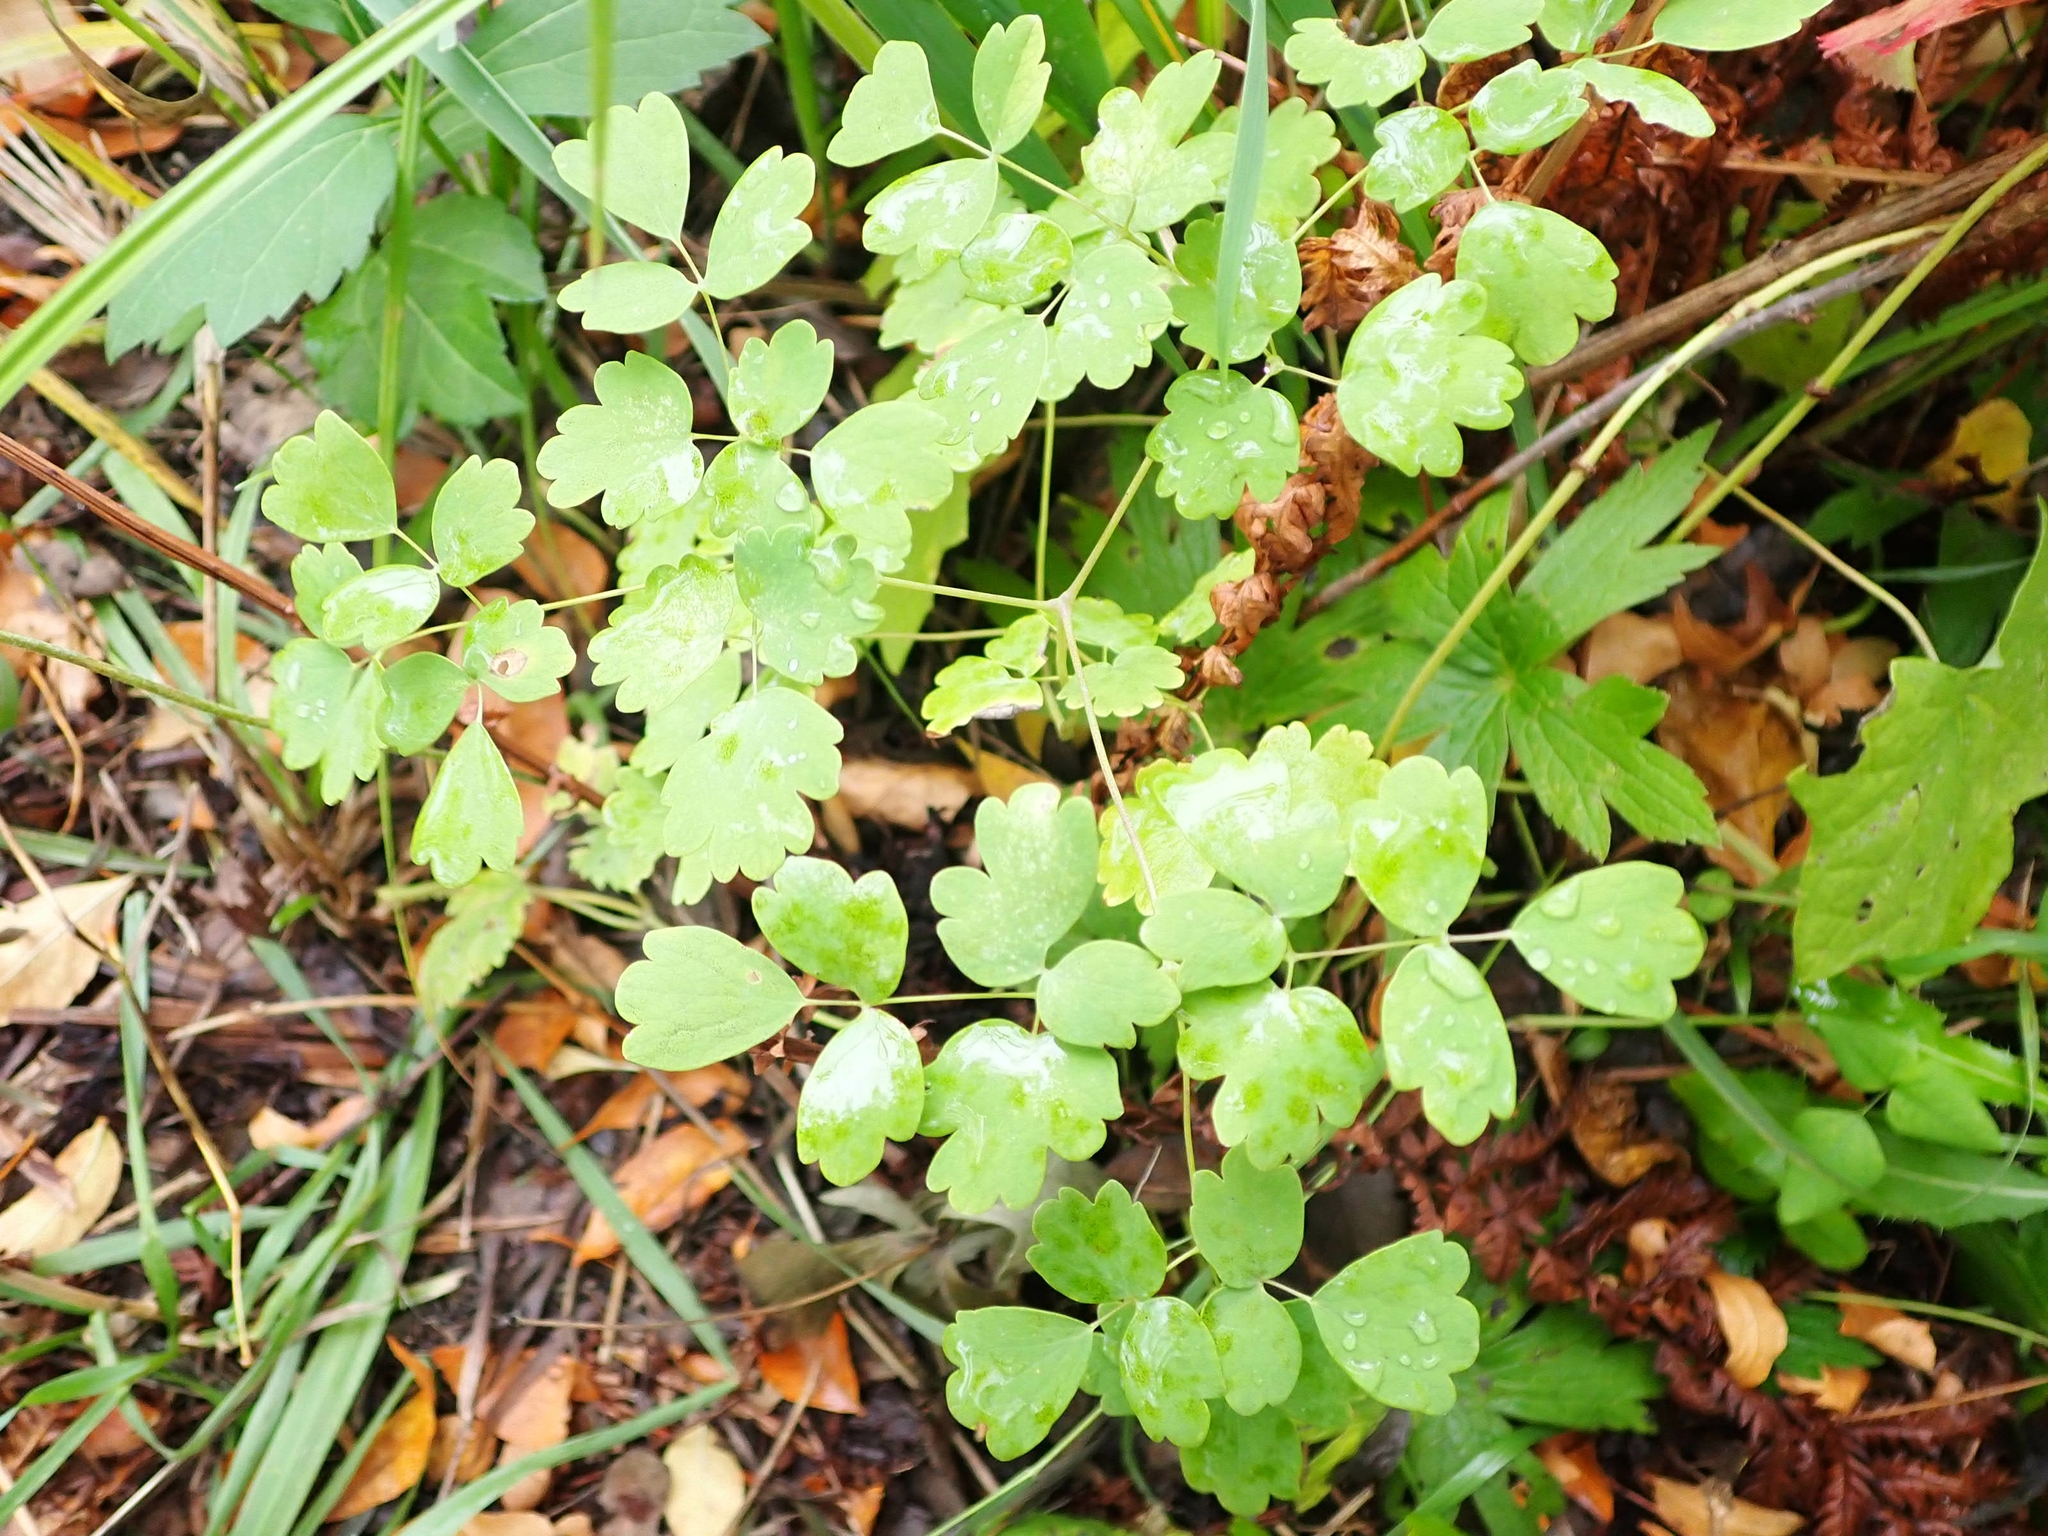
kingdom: Plantae
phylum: Tracheophyta
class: Magnoliopsida
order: Ranunculales
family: Ranunculaceae
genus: Thalictrum
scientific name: Thalictrum venulosum
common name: Early meadow-rue
